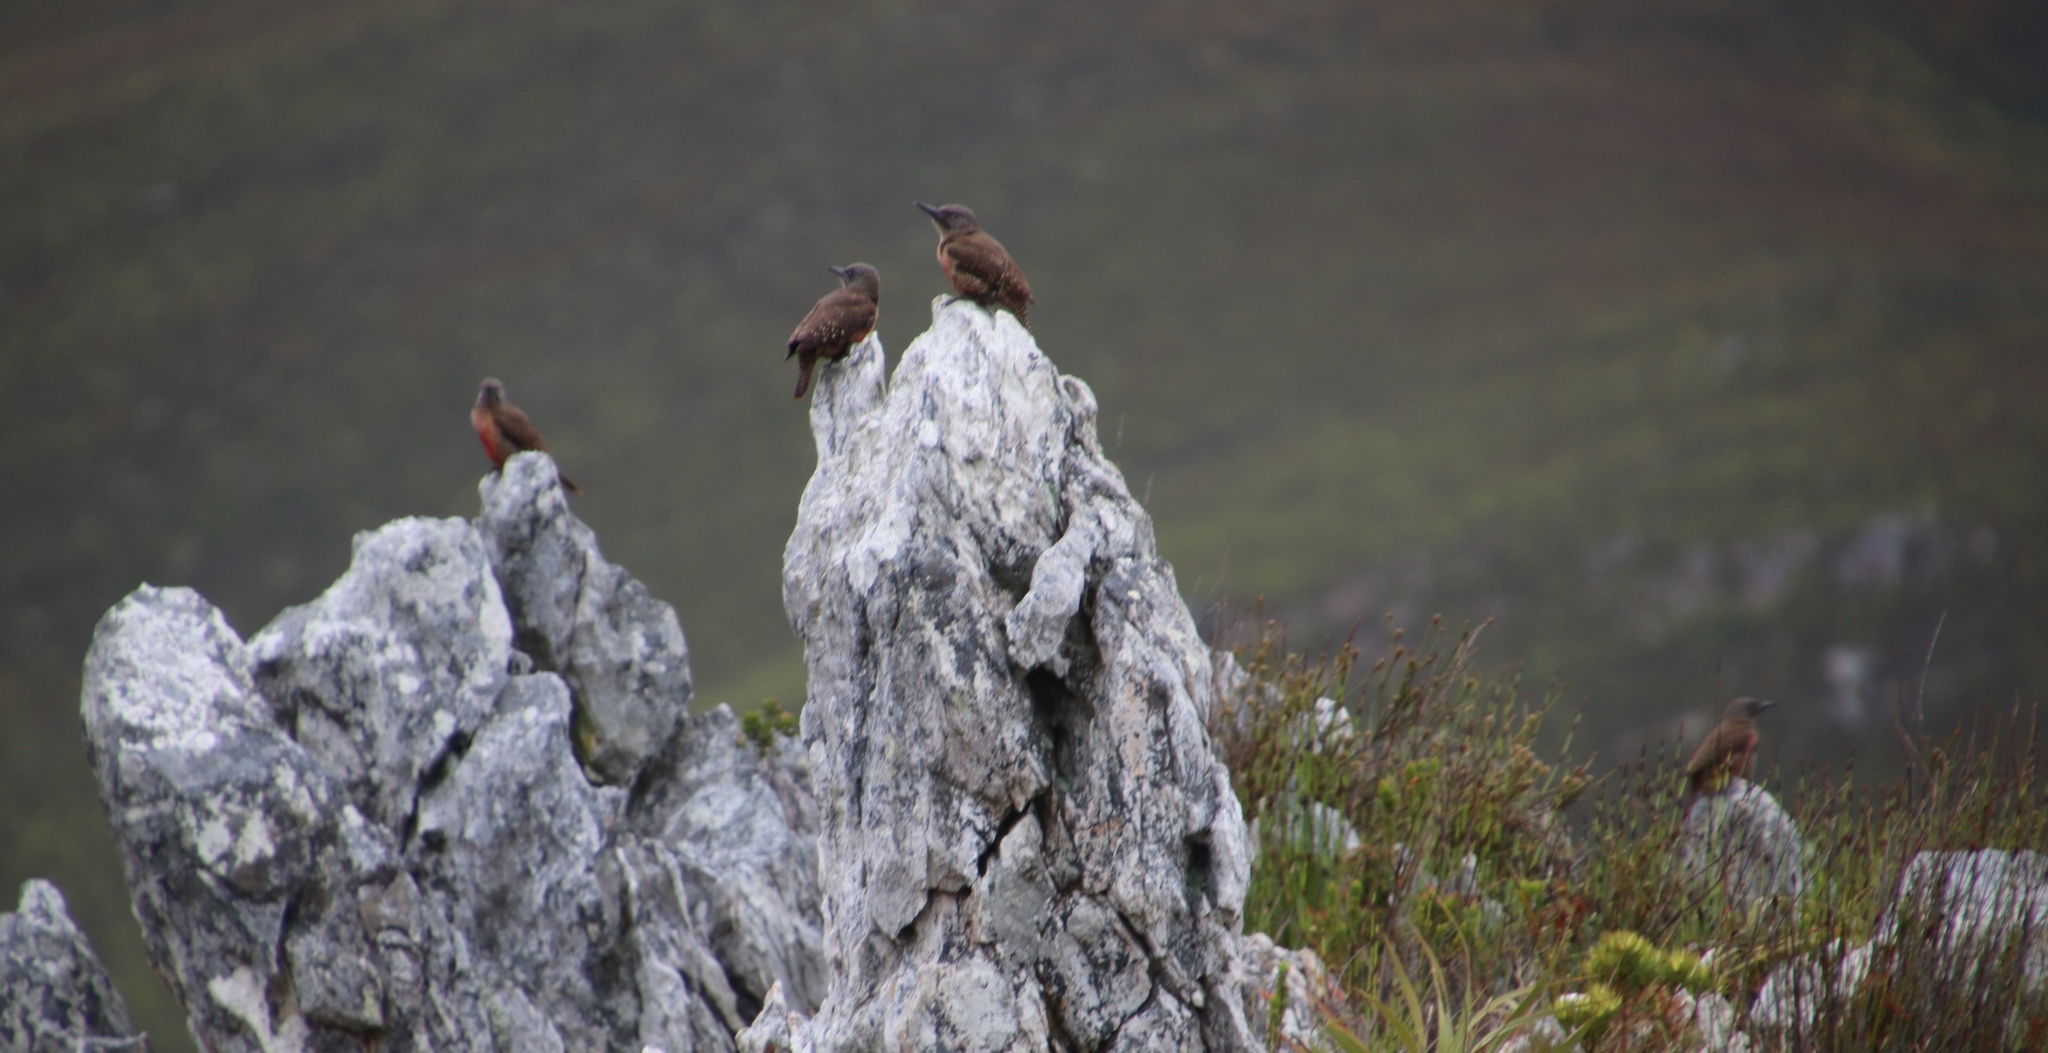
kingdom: Animalia
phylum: Chordata
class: Aves
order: Piciformes
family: Picidae
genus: Geocolaptes
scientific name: Geocolaptes olivaceus
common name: Ground woodpecker
